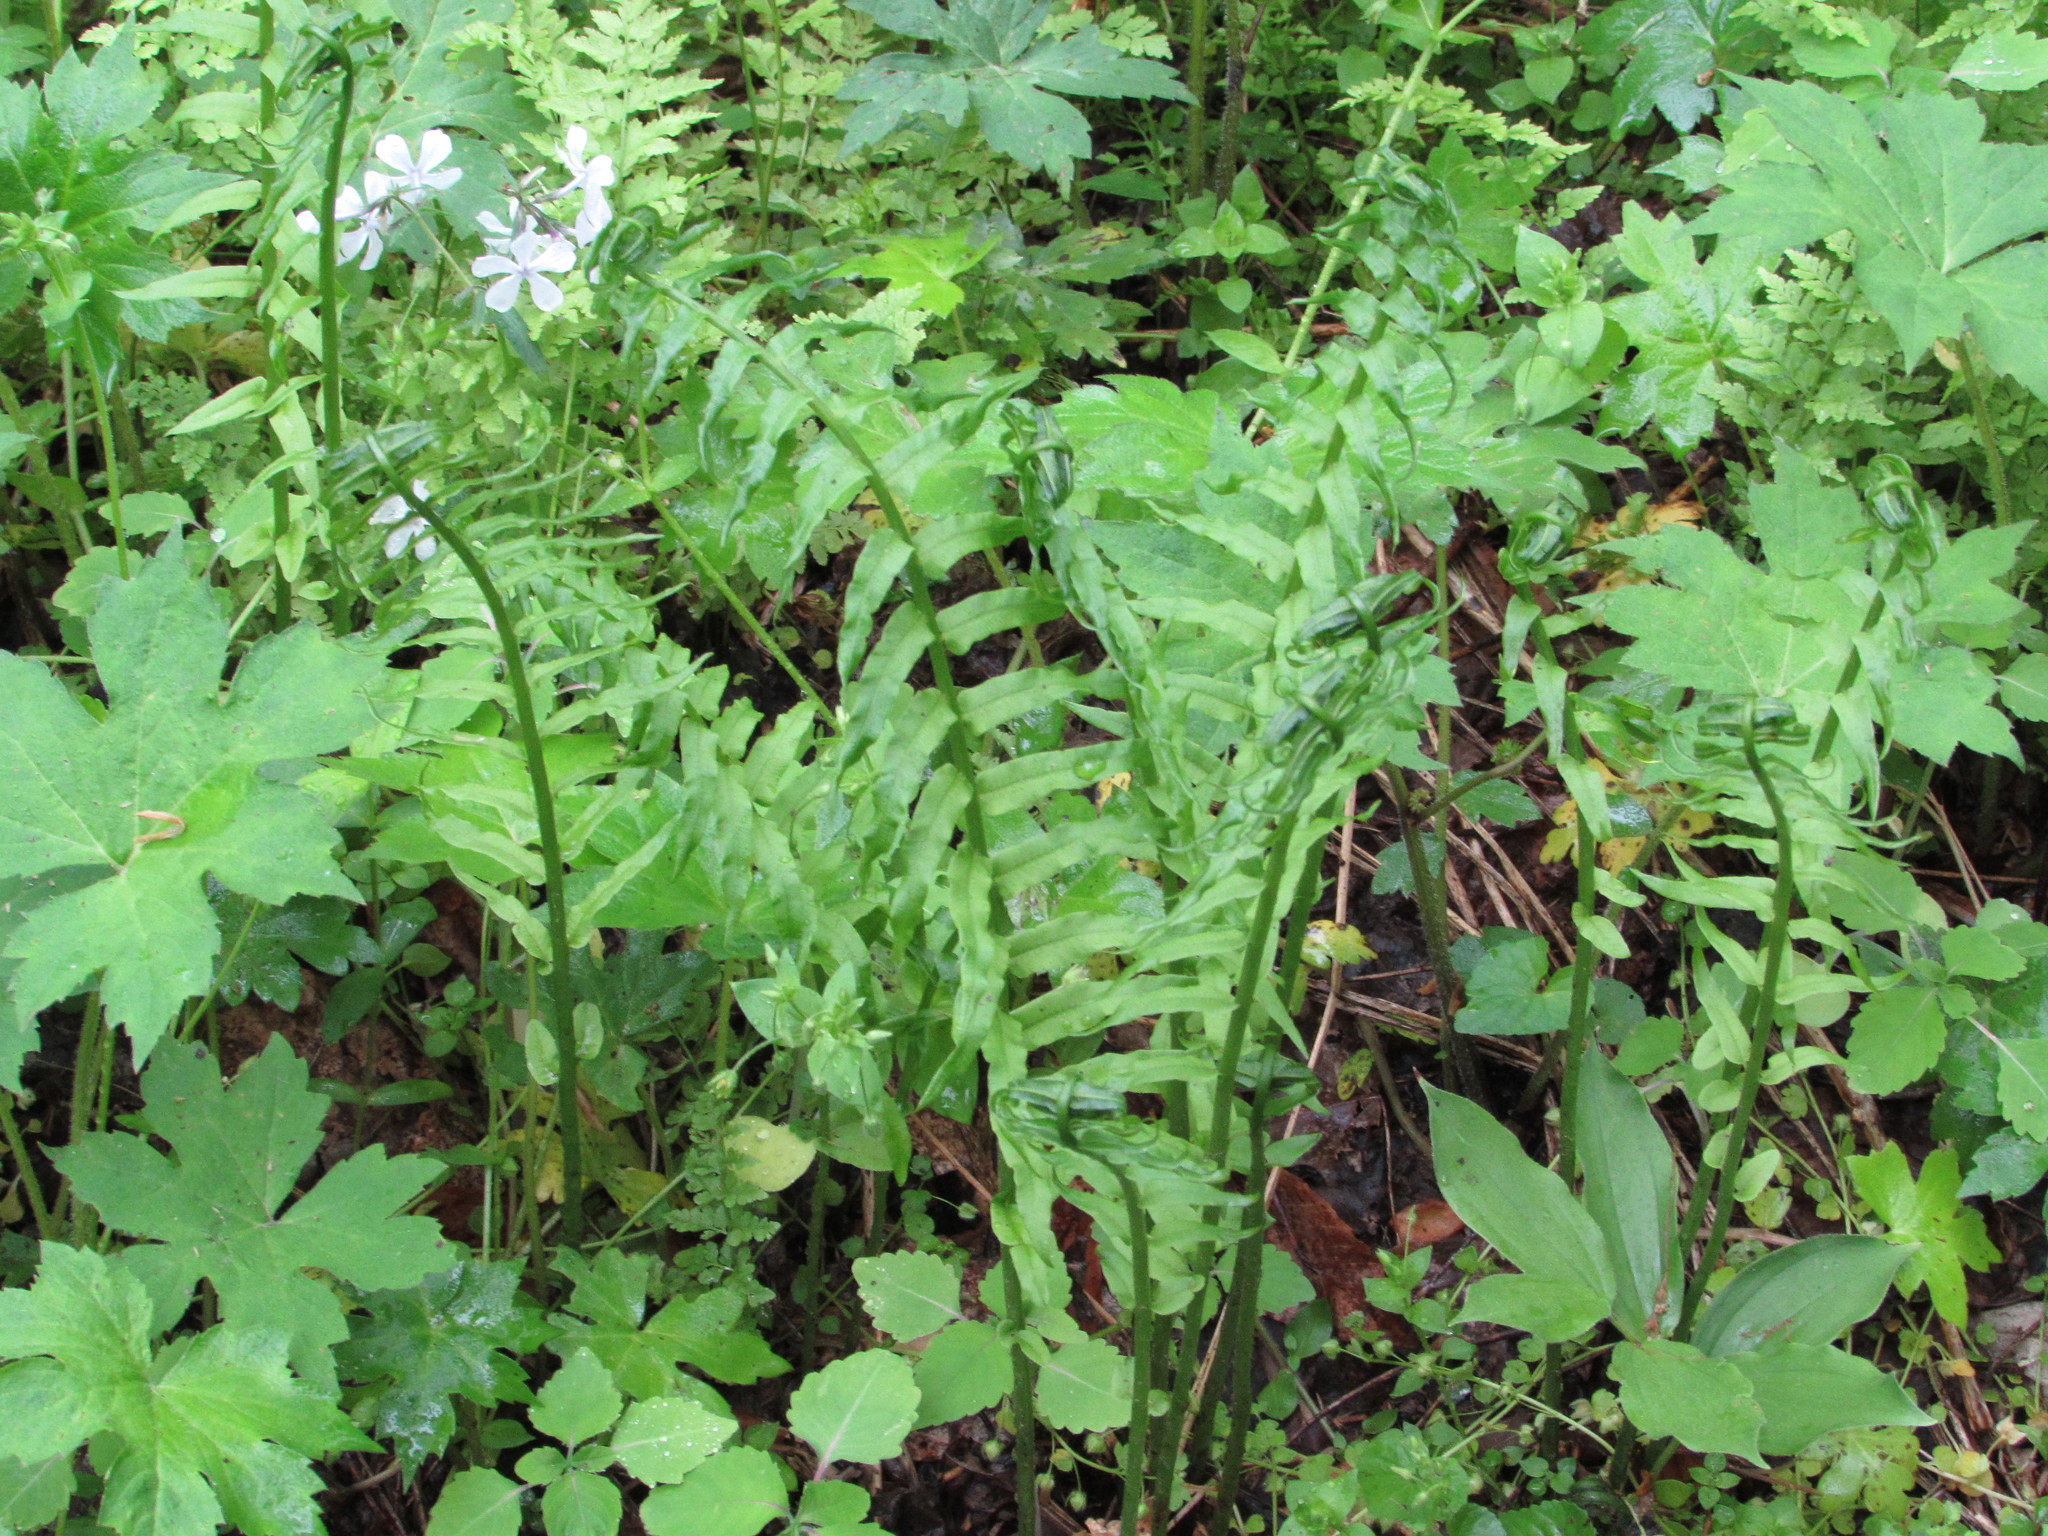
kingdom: Plantae
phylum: Tracheophyta
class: Polypodiopsida
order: Polypodiales
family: Diplaziopsidaceae
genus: Homalosorus
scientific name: Homalosorus pycnocarpos
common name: Glade fern
